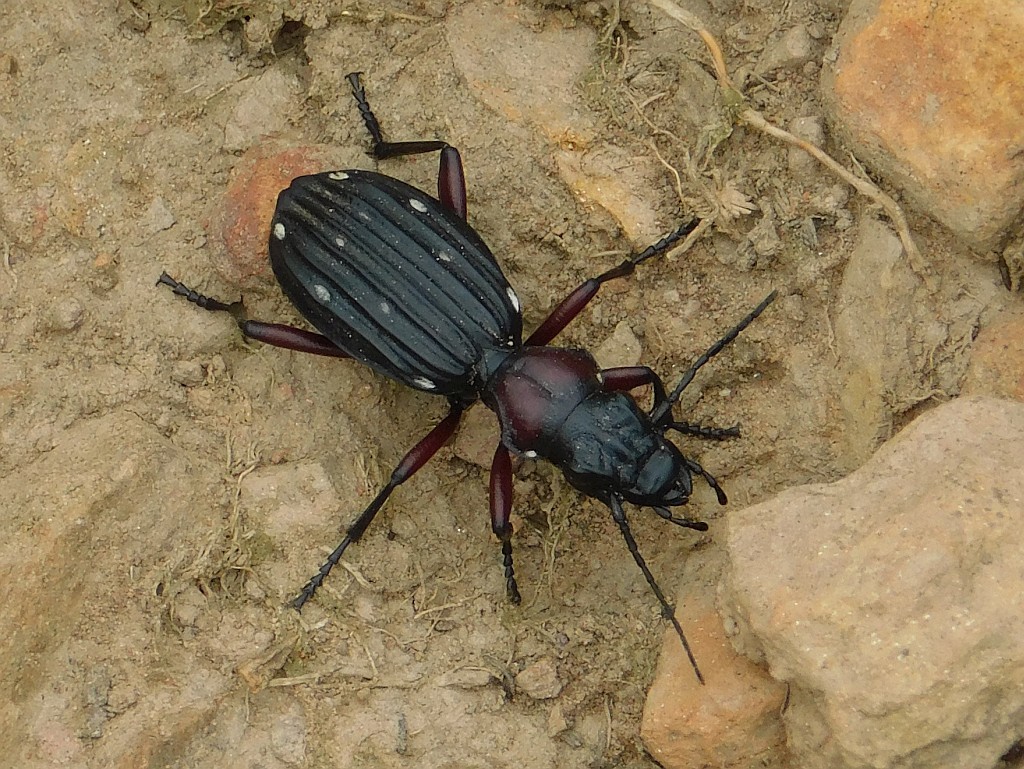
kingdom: Animalia
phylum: Arthropoda
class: Insecta
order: Coleoptera
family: Carabidae
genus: Anthia
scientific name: Anthia decemguttata
